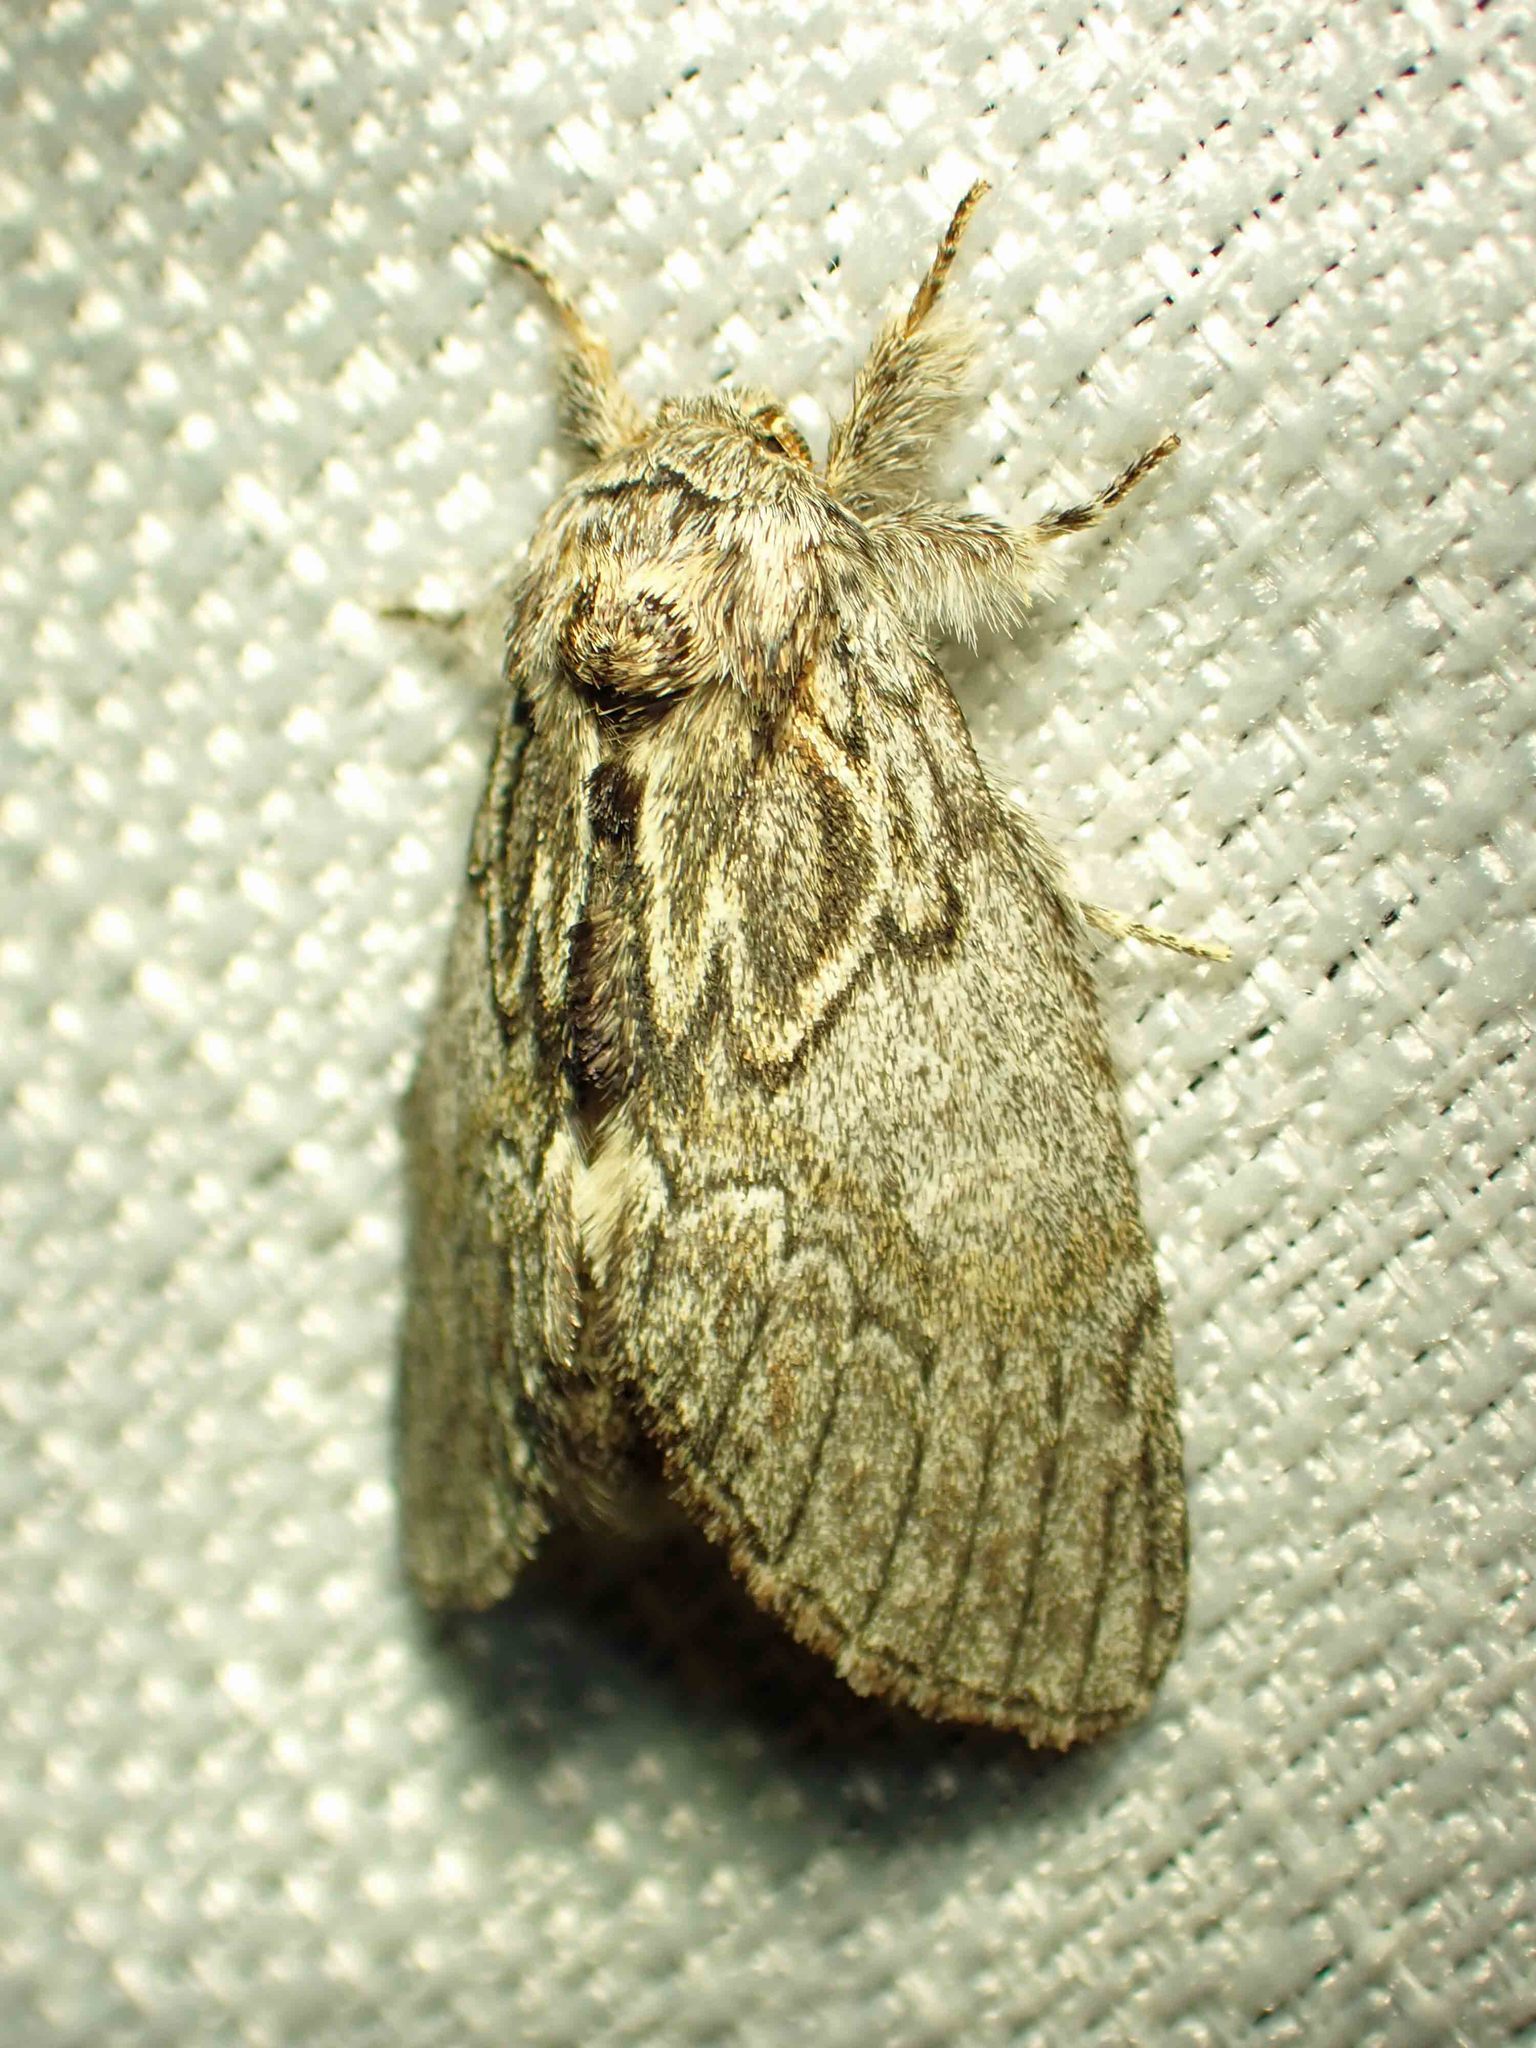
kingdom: Animalia
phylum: Arthropoda
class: Insecta
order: Lepidoptera
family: Notodontidae
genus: Peridea
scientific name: Peridea basitriens
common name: Oval-based prominent
